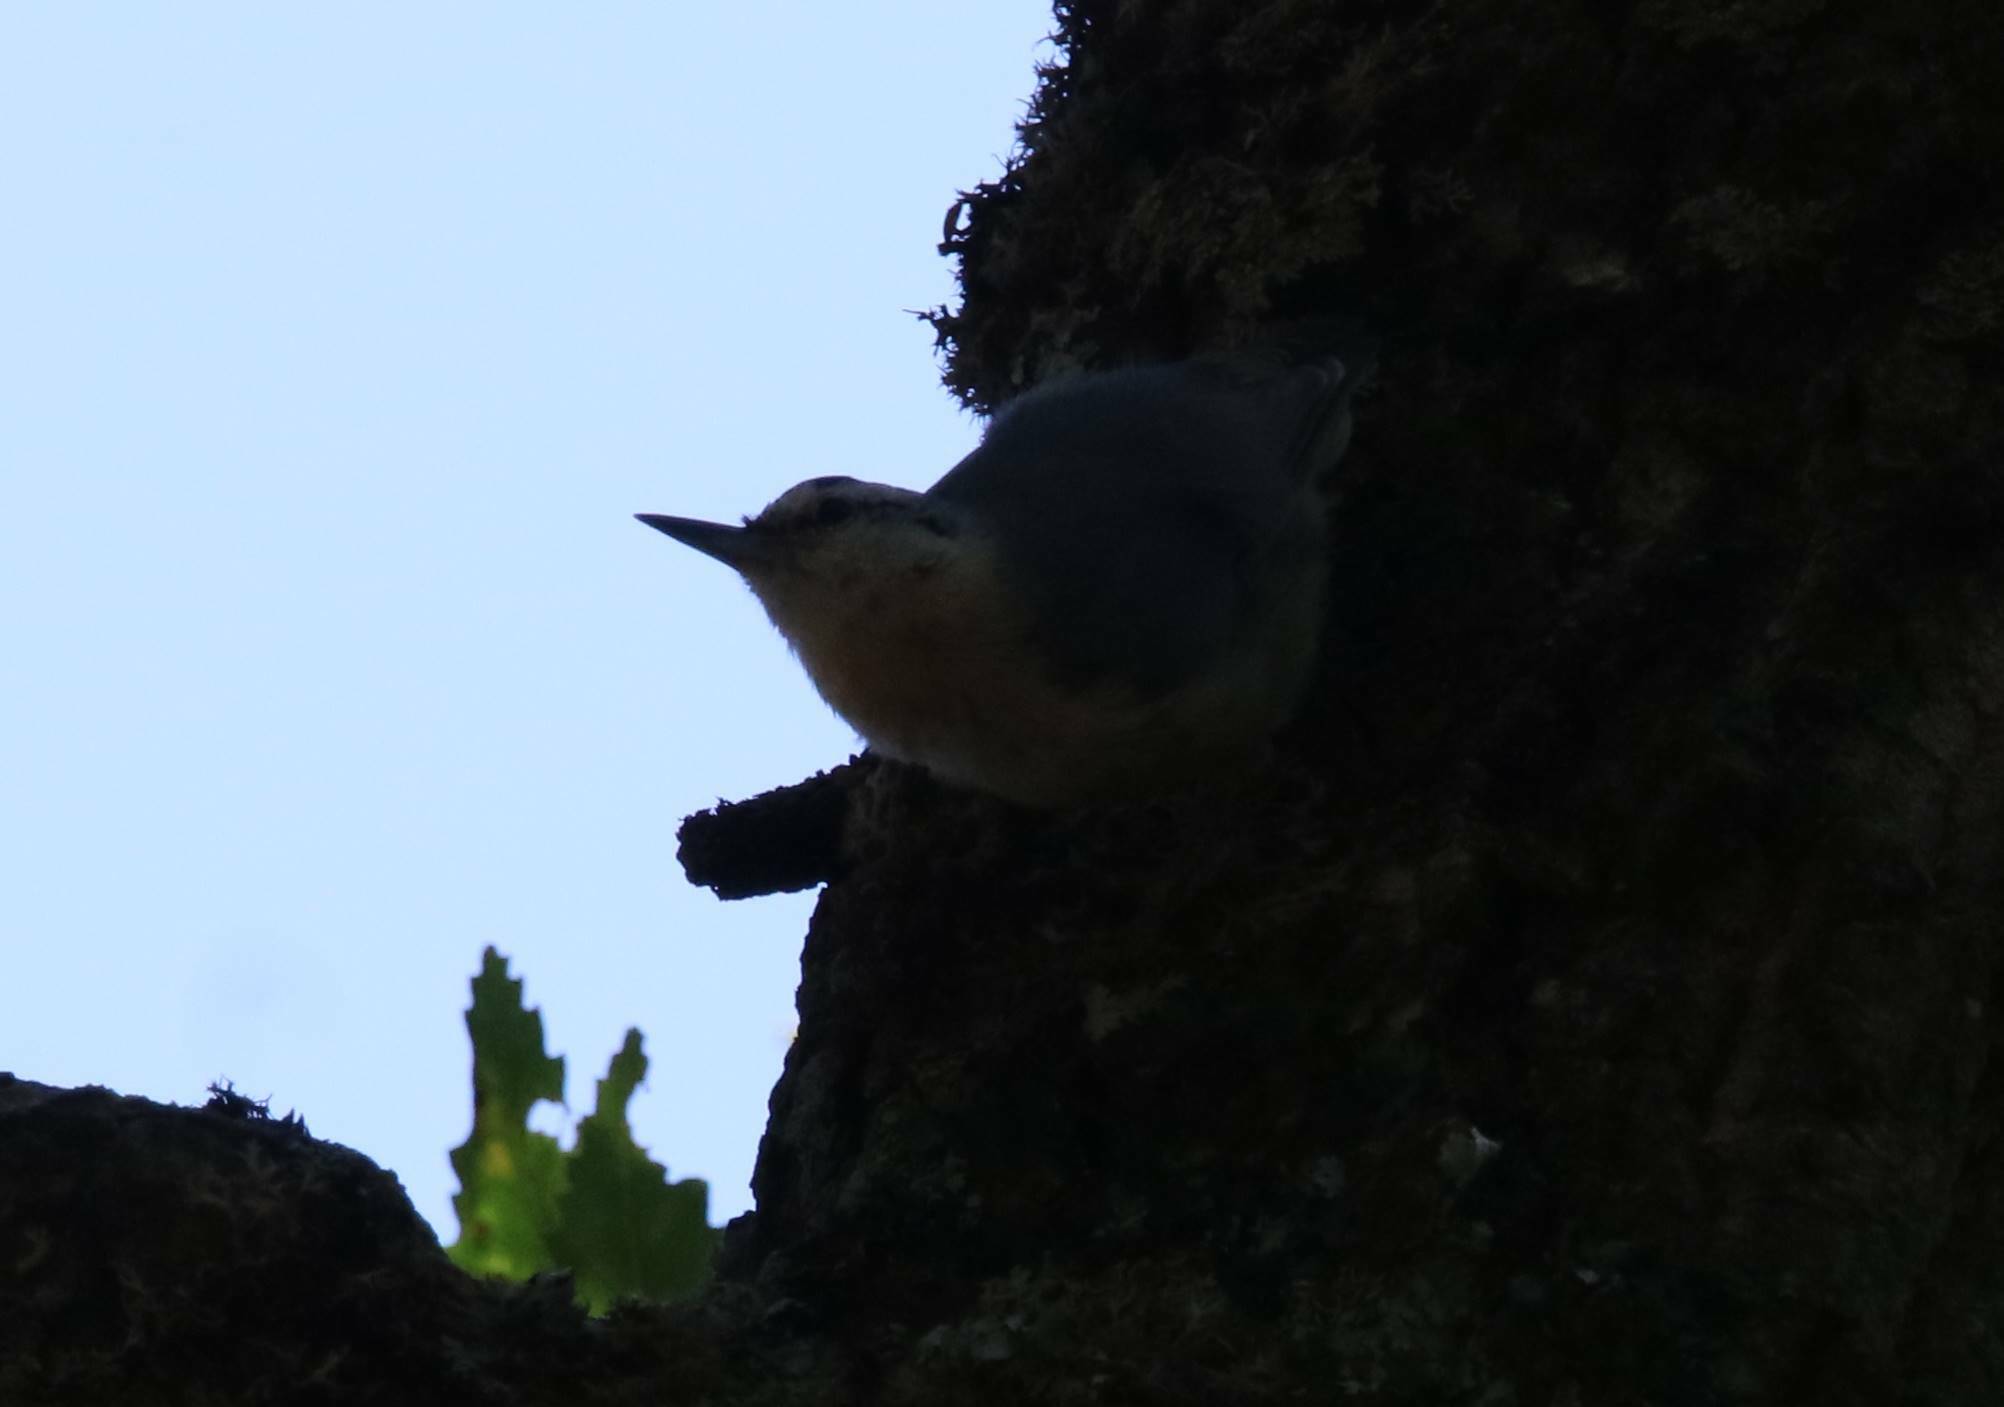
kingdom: Animalia
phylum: Chordata
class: Aves
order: Passeriformes
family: Sittidae
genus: Sitta
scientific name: Sitta ledanti
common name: Algerian nuthatch
